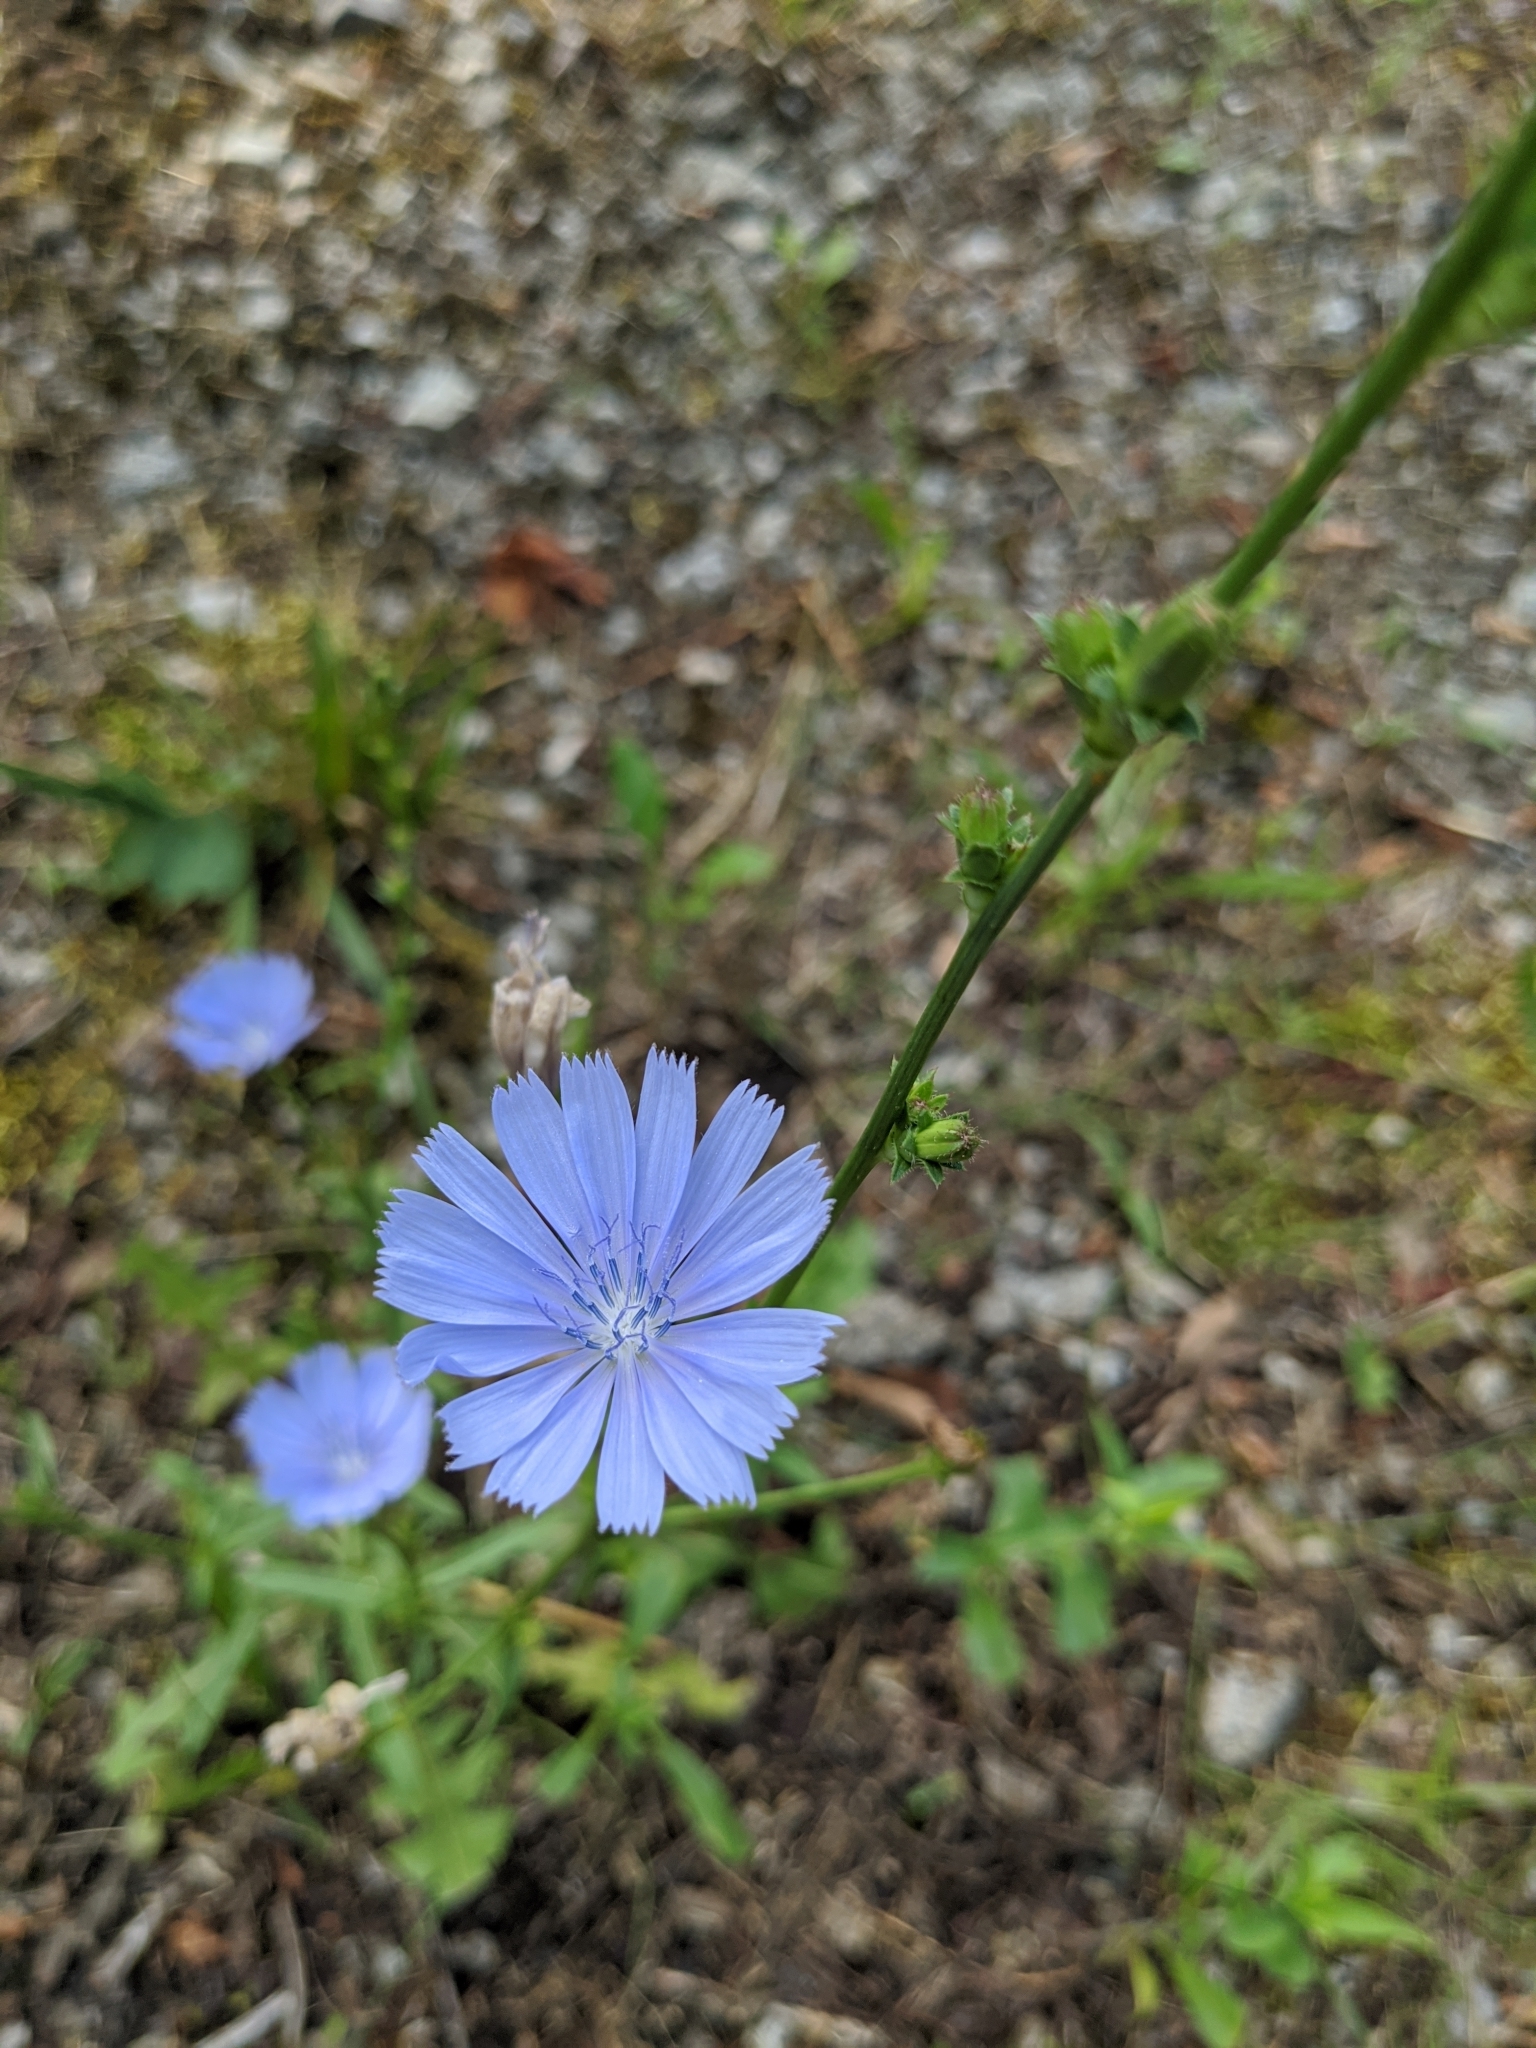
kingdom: Plantae
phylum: Tracheophyta
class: Magnoliopsida
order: Asterales
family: Asteraceae
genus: Cichorium
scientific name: Cichorium intybus
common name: Chicory
